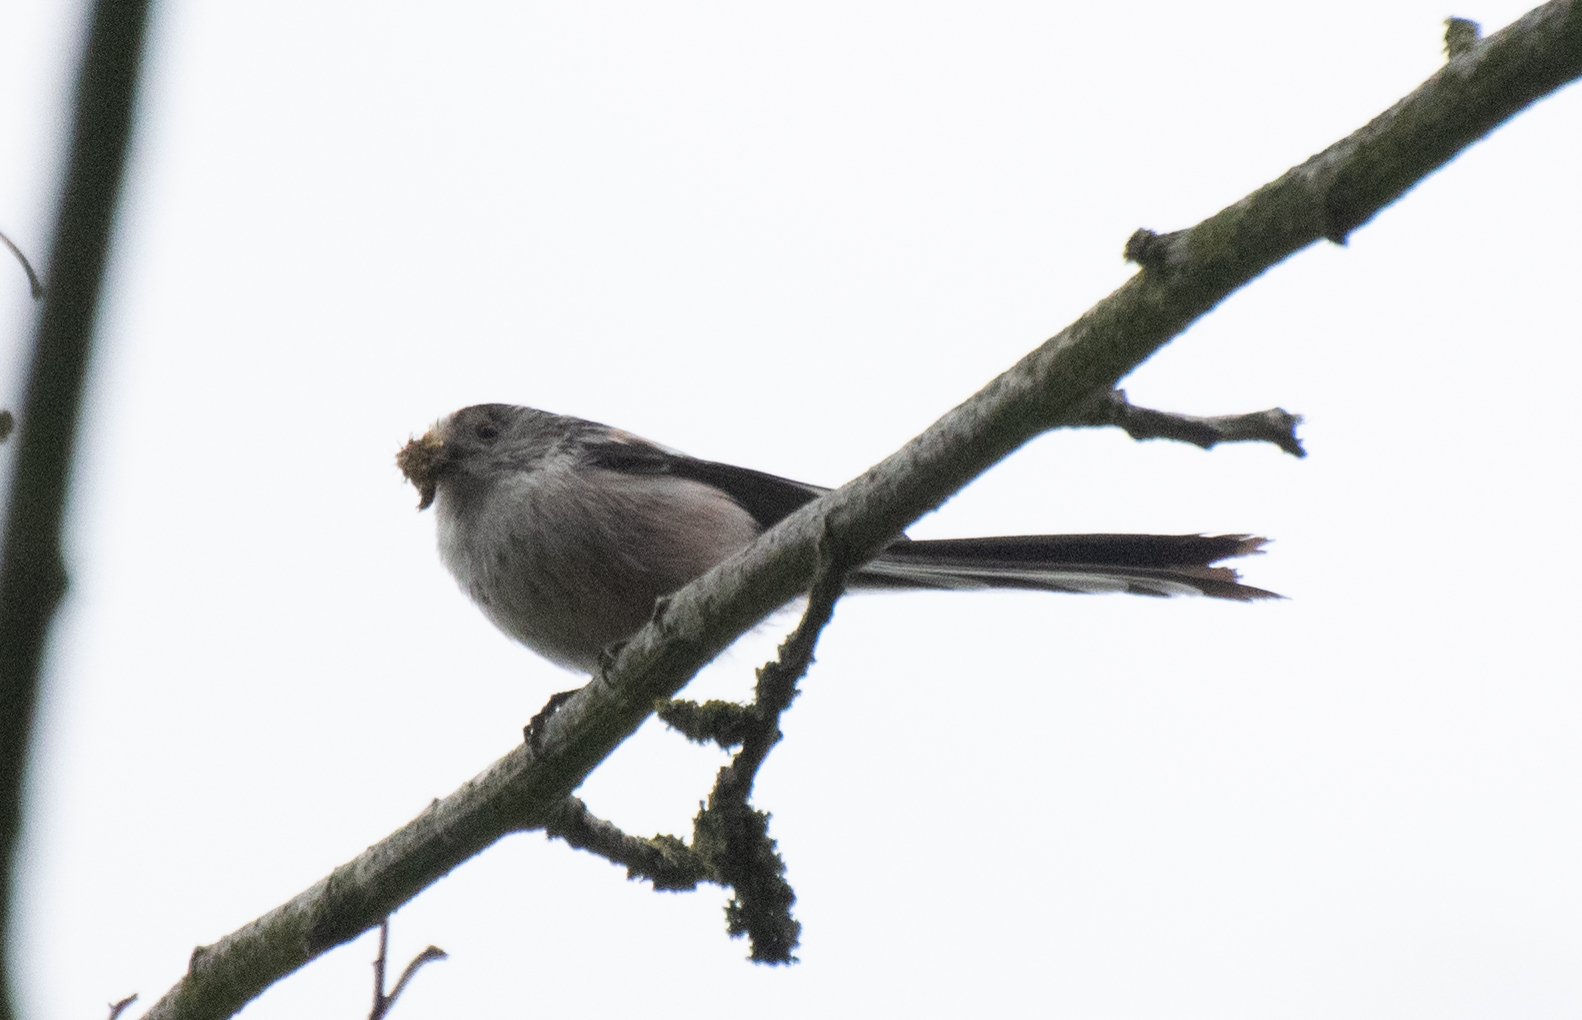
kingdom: Animalia
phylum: Chordata
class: Aves
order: Passeriformes
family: Aegithalidae
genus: Aegithalos
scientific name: Aegithalos caudatus
